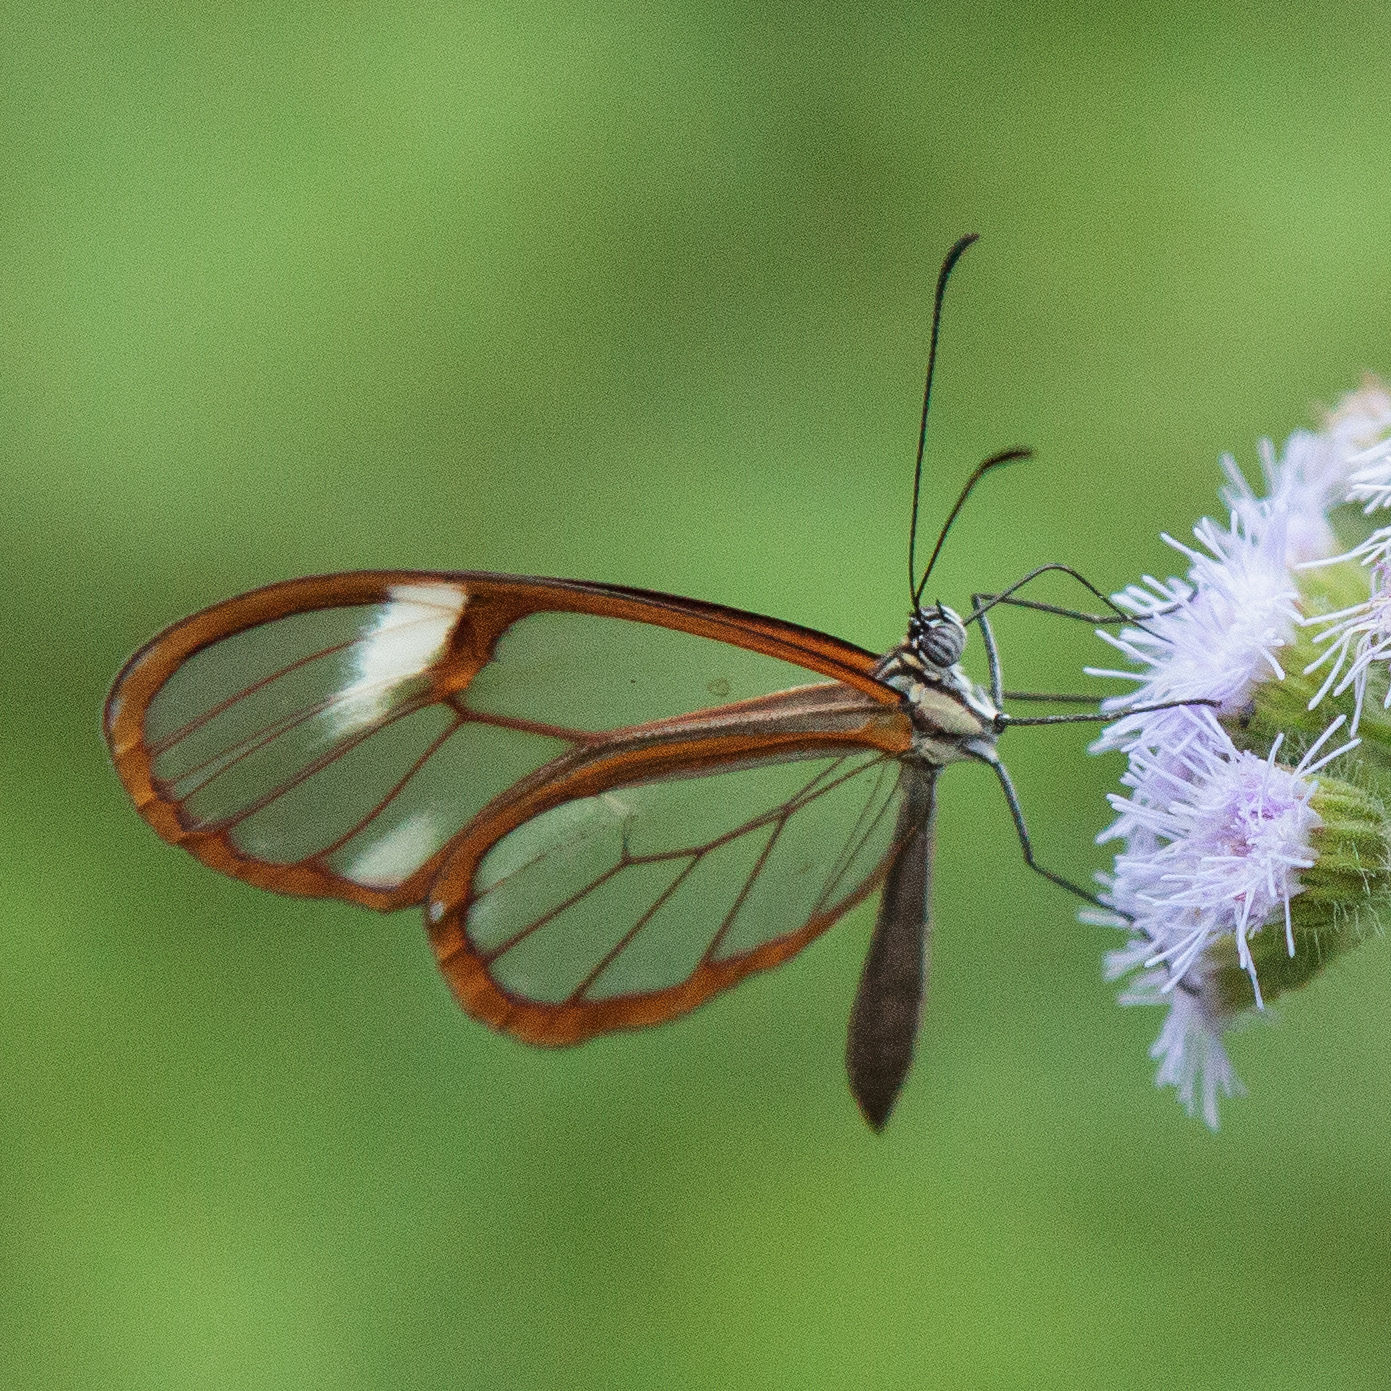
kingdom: Animalia
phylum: Arthropoda
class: Insecta
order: Lepidoptera
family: Nymphalidae
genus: Episcada
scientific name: Episcada salvinia
